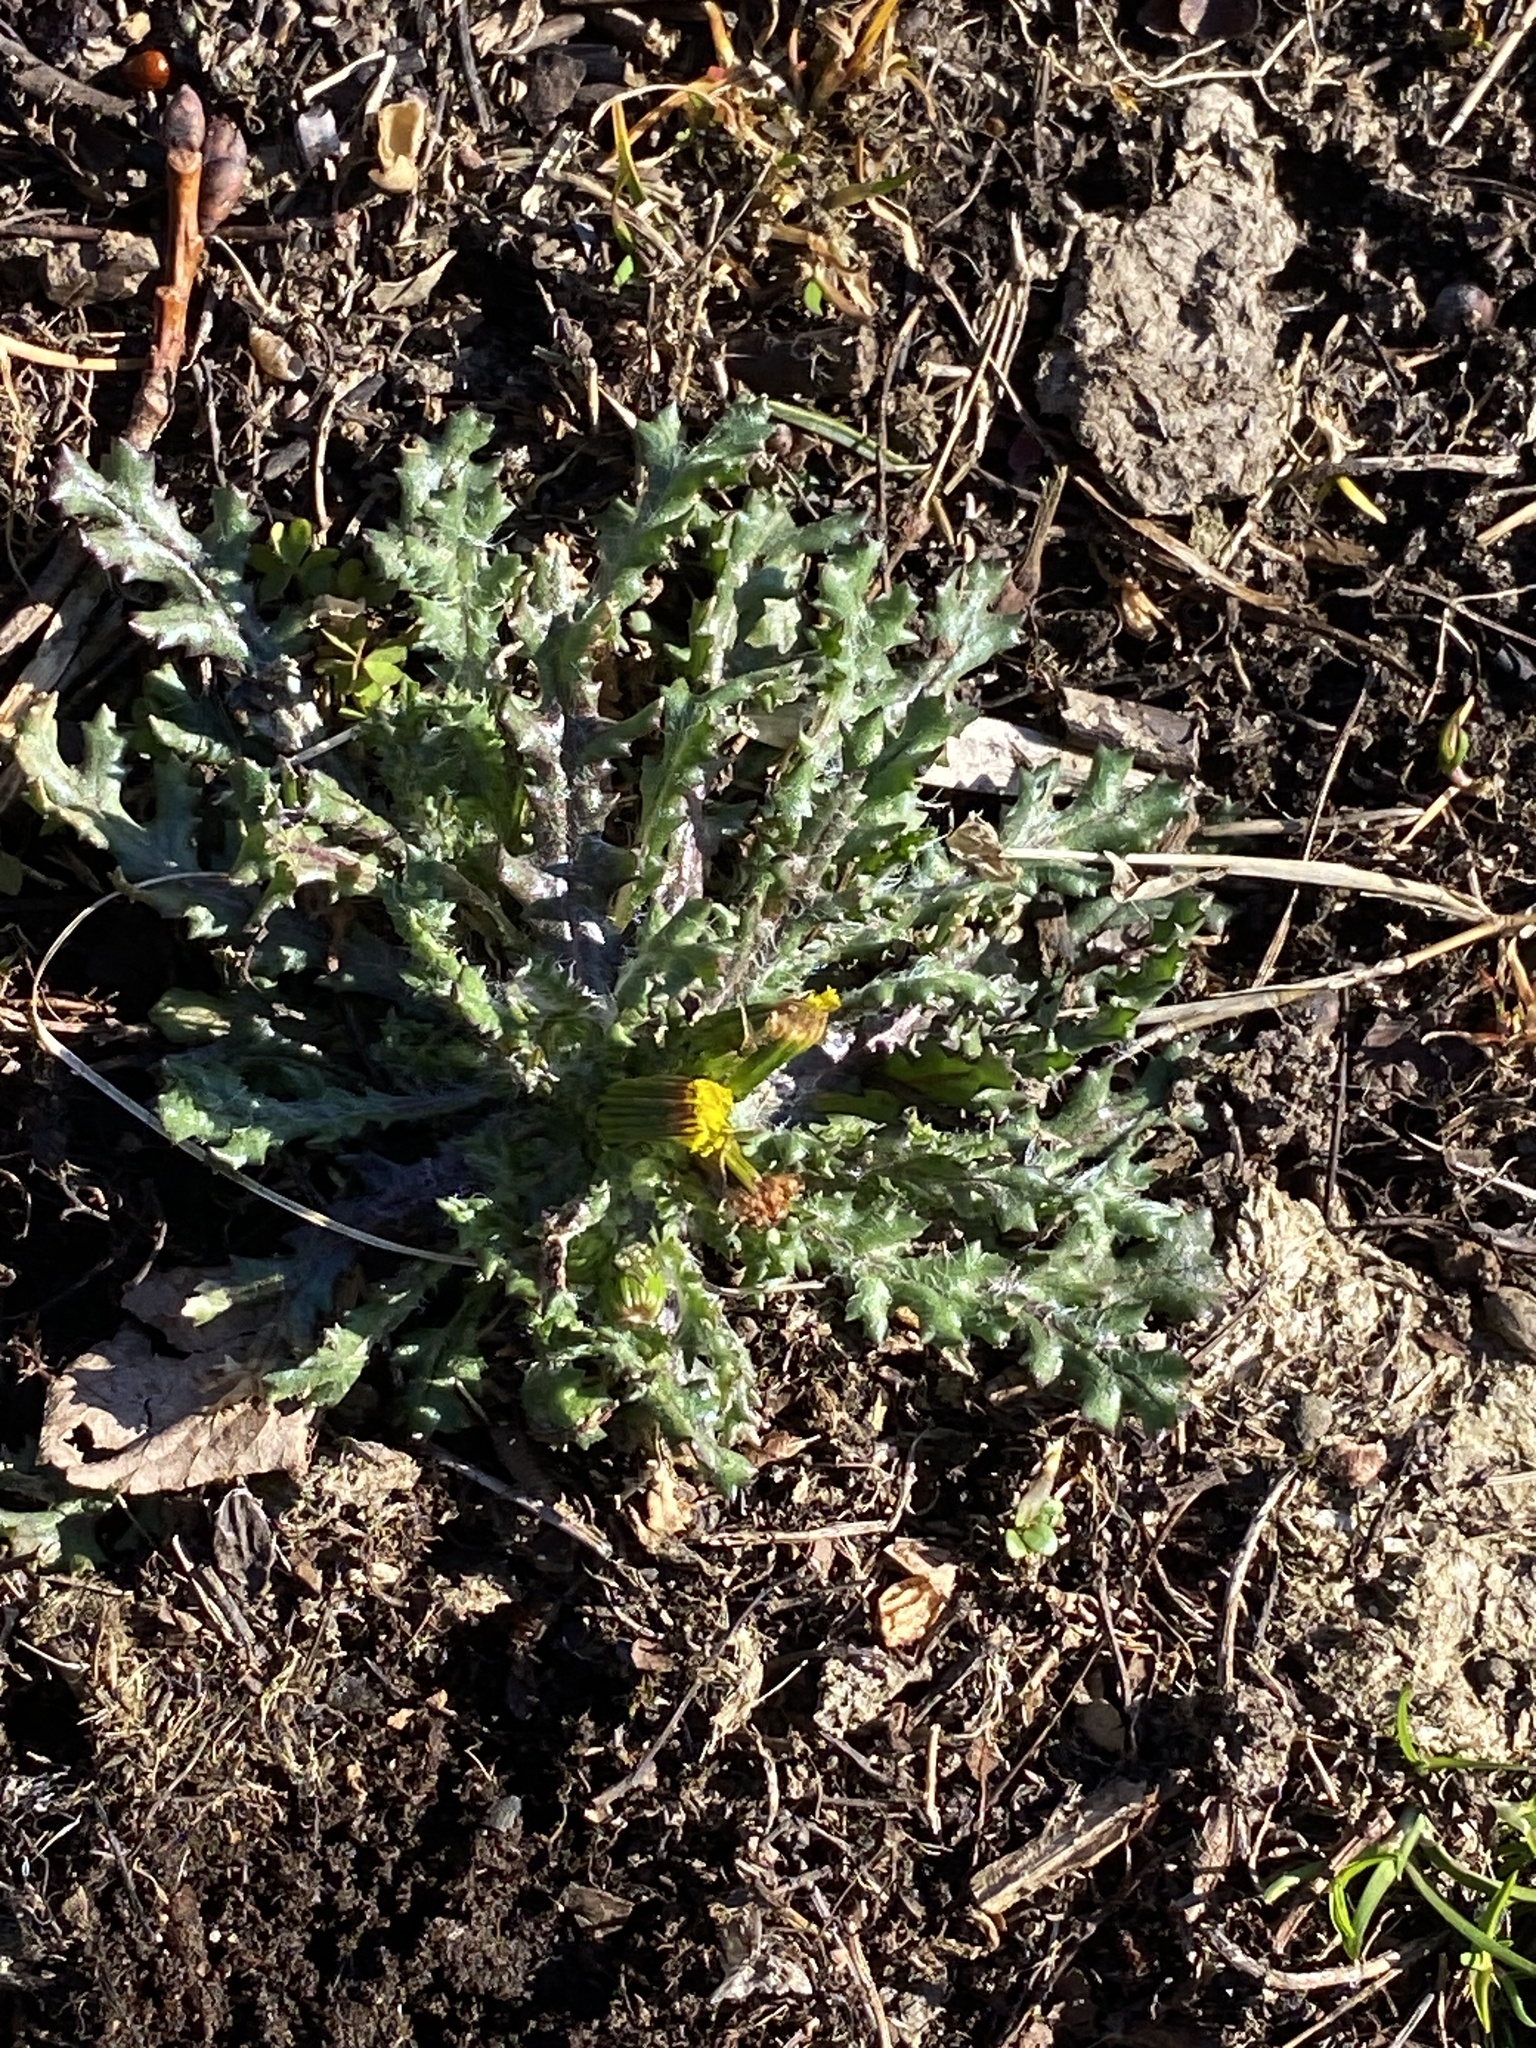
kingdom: Plantae
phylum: Tracheophyta
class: Magnoliopsida
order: Asterales
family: Asteraceae
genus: Senecio
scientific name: Senecio vulgaris
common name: Old-man-in-the-spring
